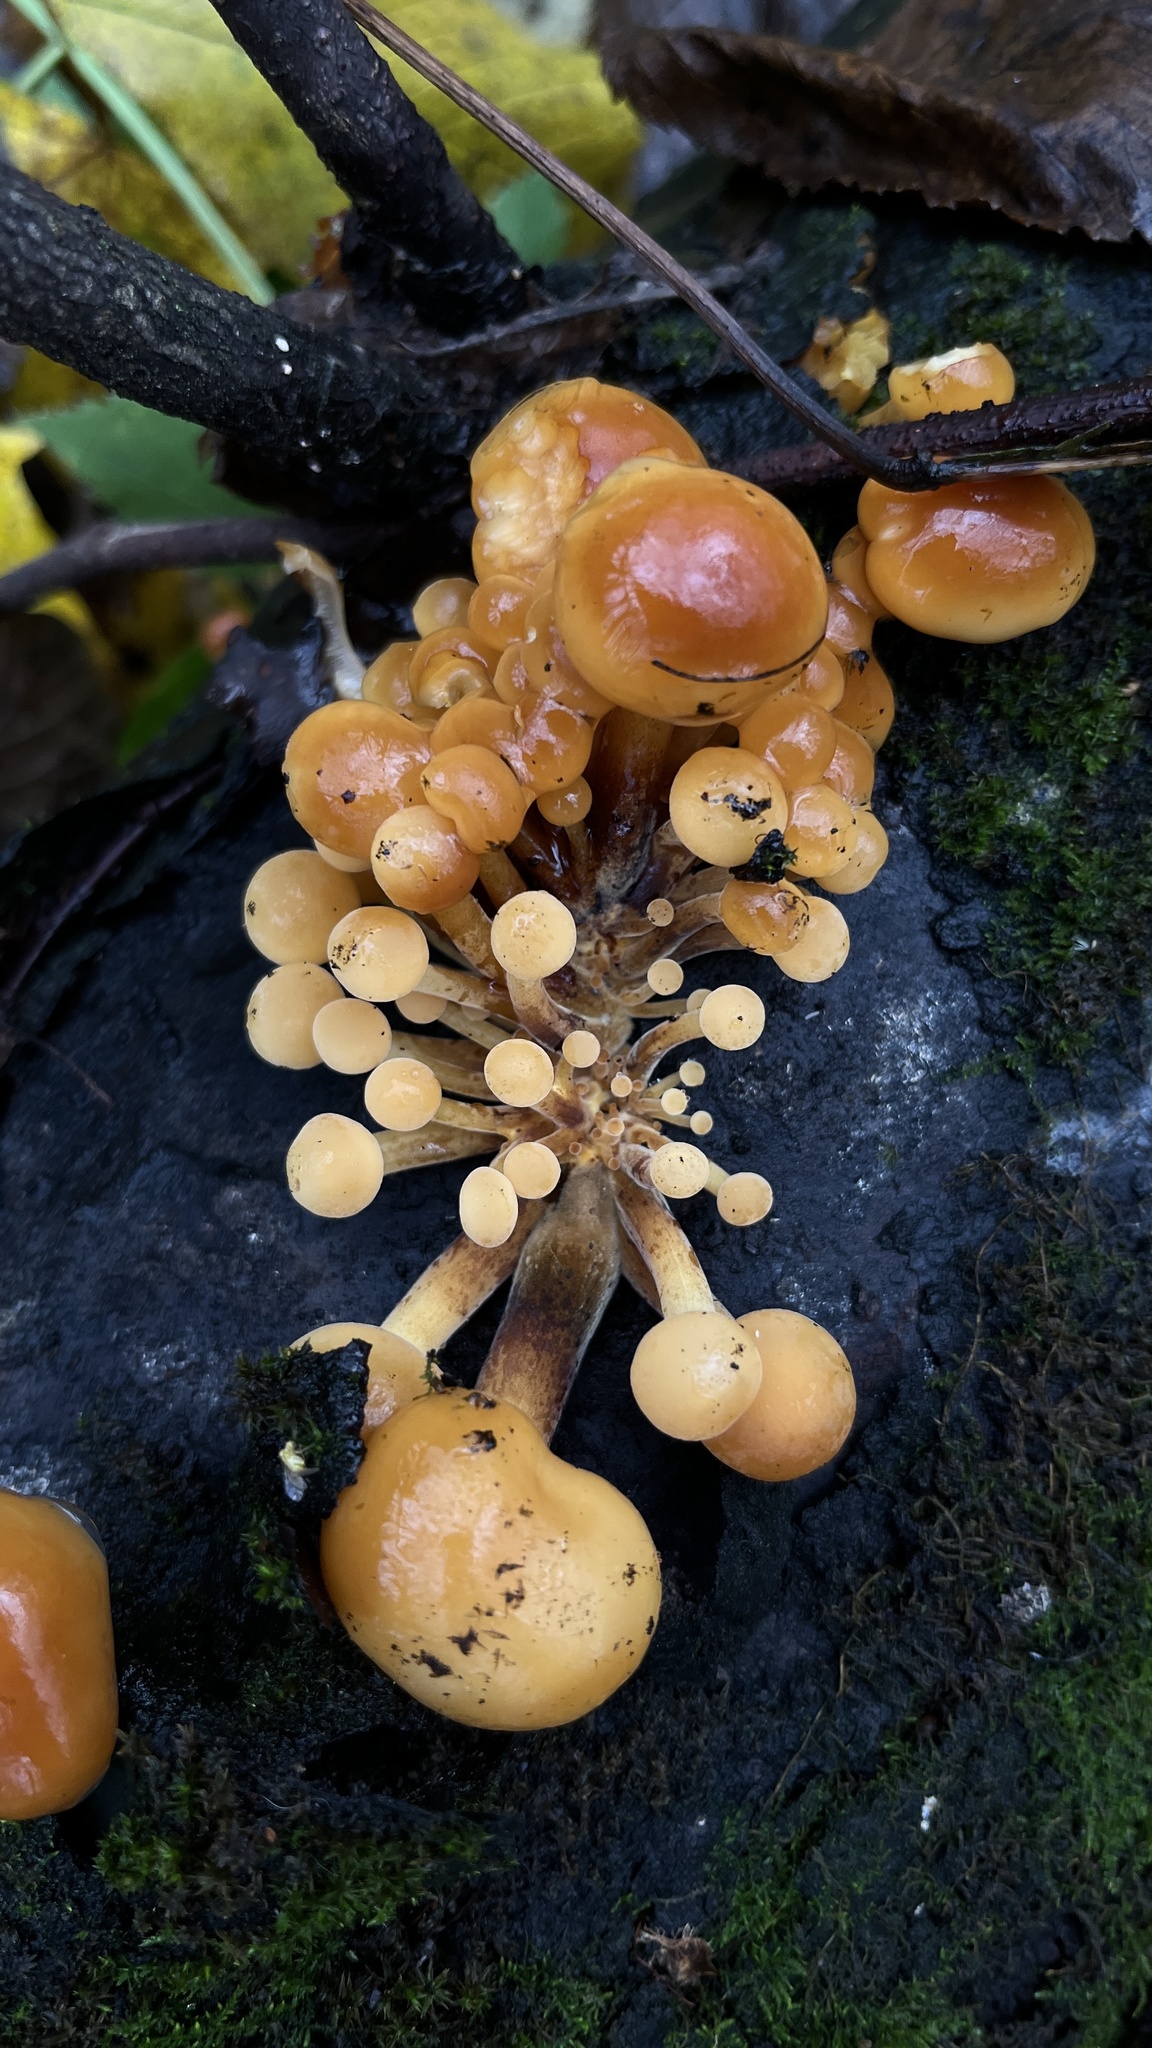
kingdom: Fungi
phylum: Basidiomycota
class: Agaricomycetes
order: Agaricales
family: Physalacriaceae
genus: Flammulina
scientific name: Flammulina
